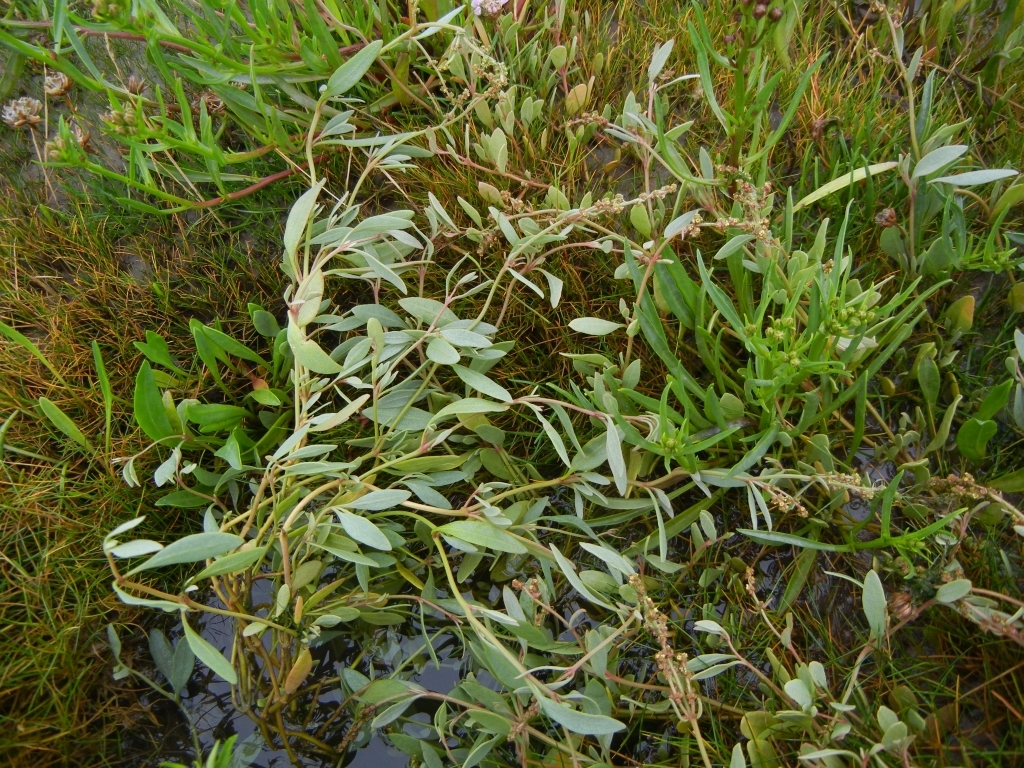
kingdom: Plantae
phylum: Tracheophyta
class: Magnoliopsida
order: Caryophyllales
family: Amaranthaceae
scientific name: Amaranthaceae
